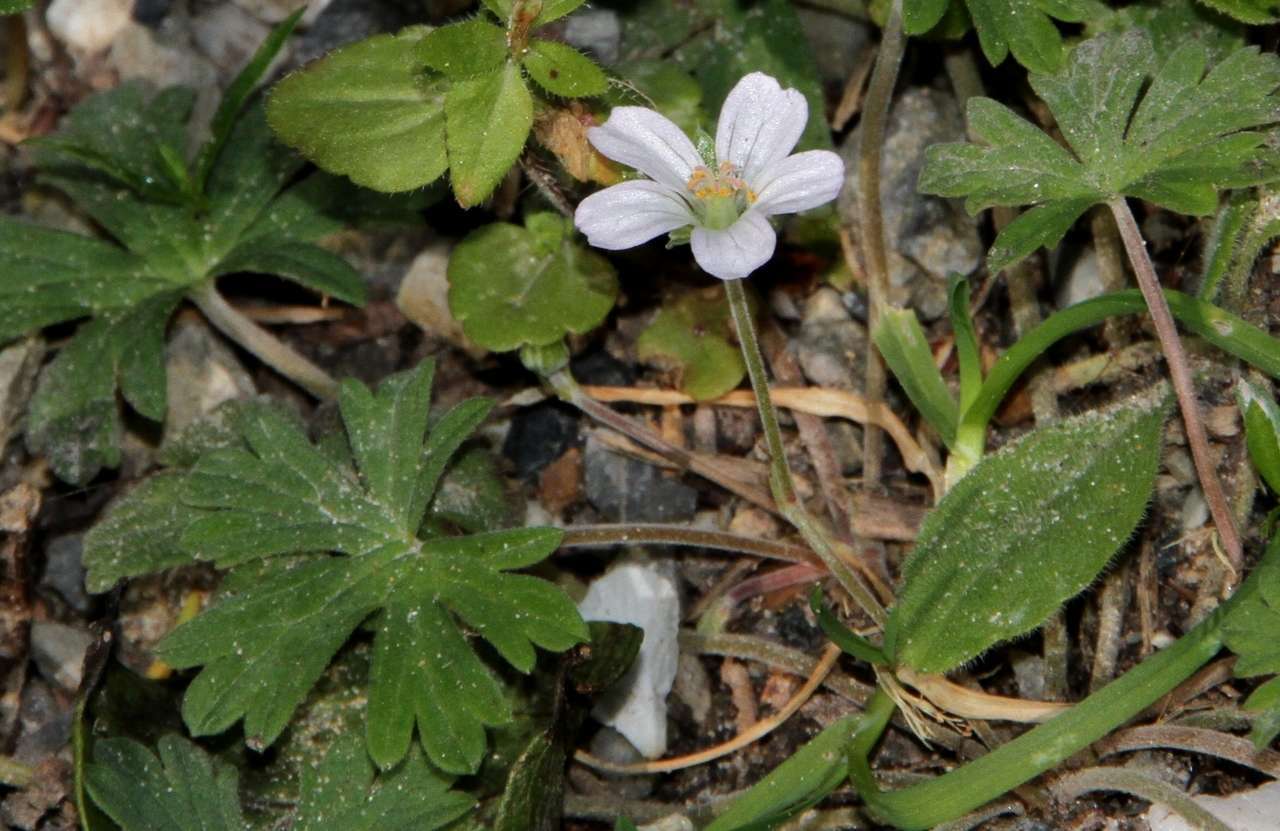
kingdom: Plantae
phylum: Tracheophyta
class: Magnoliopsida
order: Geraniales
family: Geraniaceae
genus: Geranium
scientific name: Geranium potentilloides
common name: Cinquefoil geranium
